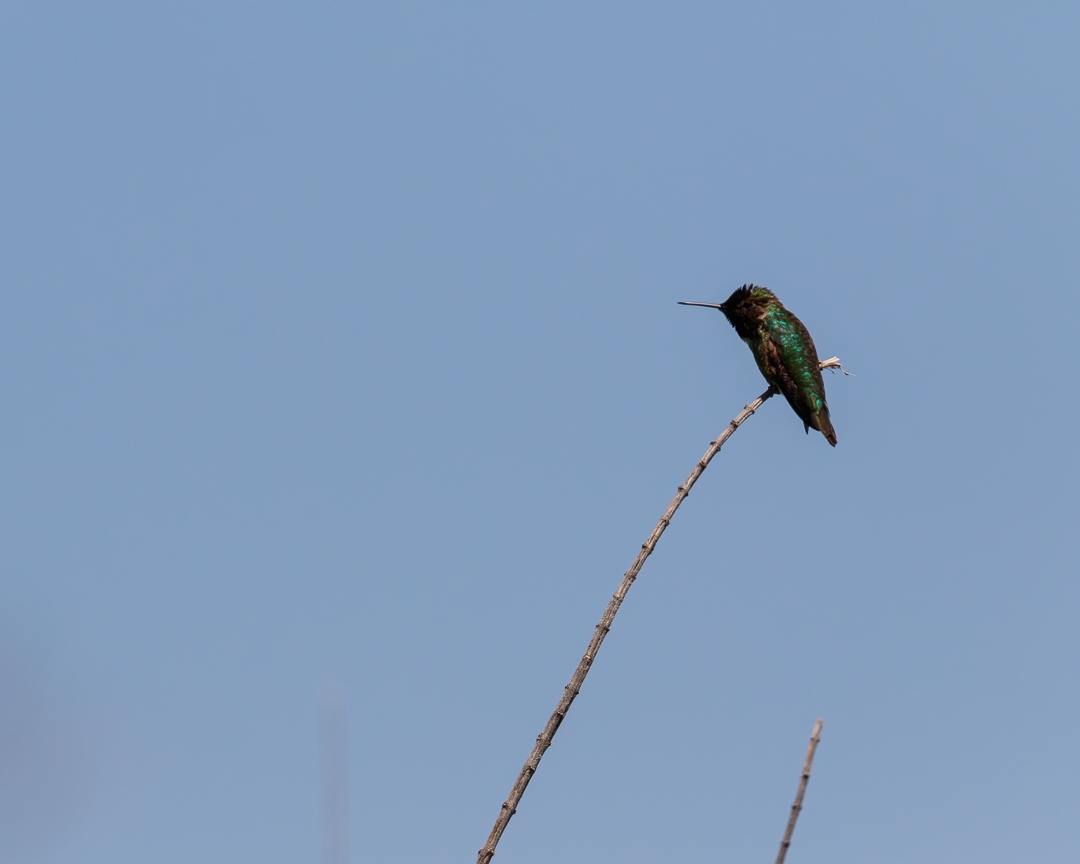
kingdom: Animalia
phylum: Chordata
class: Aves
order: Apodiformes
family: Trochilidae
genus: Calypte
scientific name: Calypte anna
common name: Anna's hummingbird
